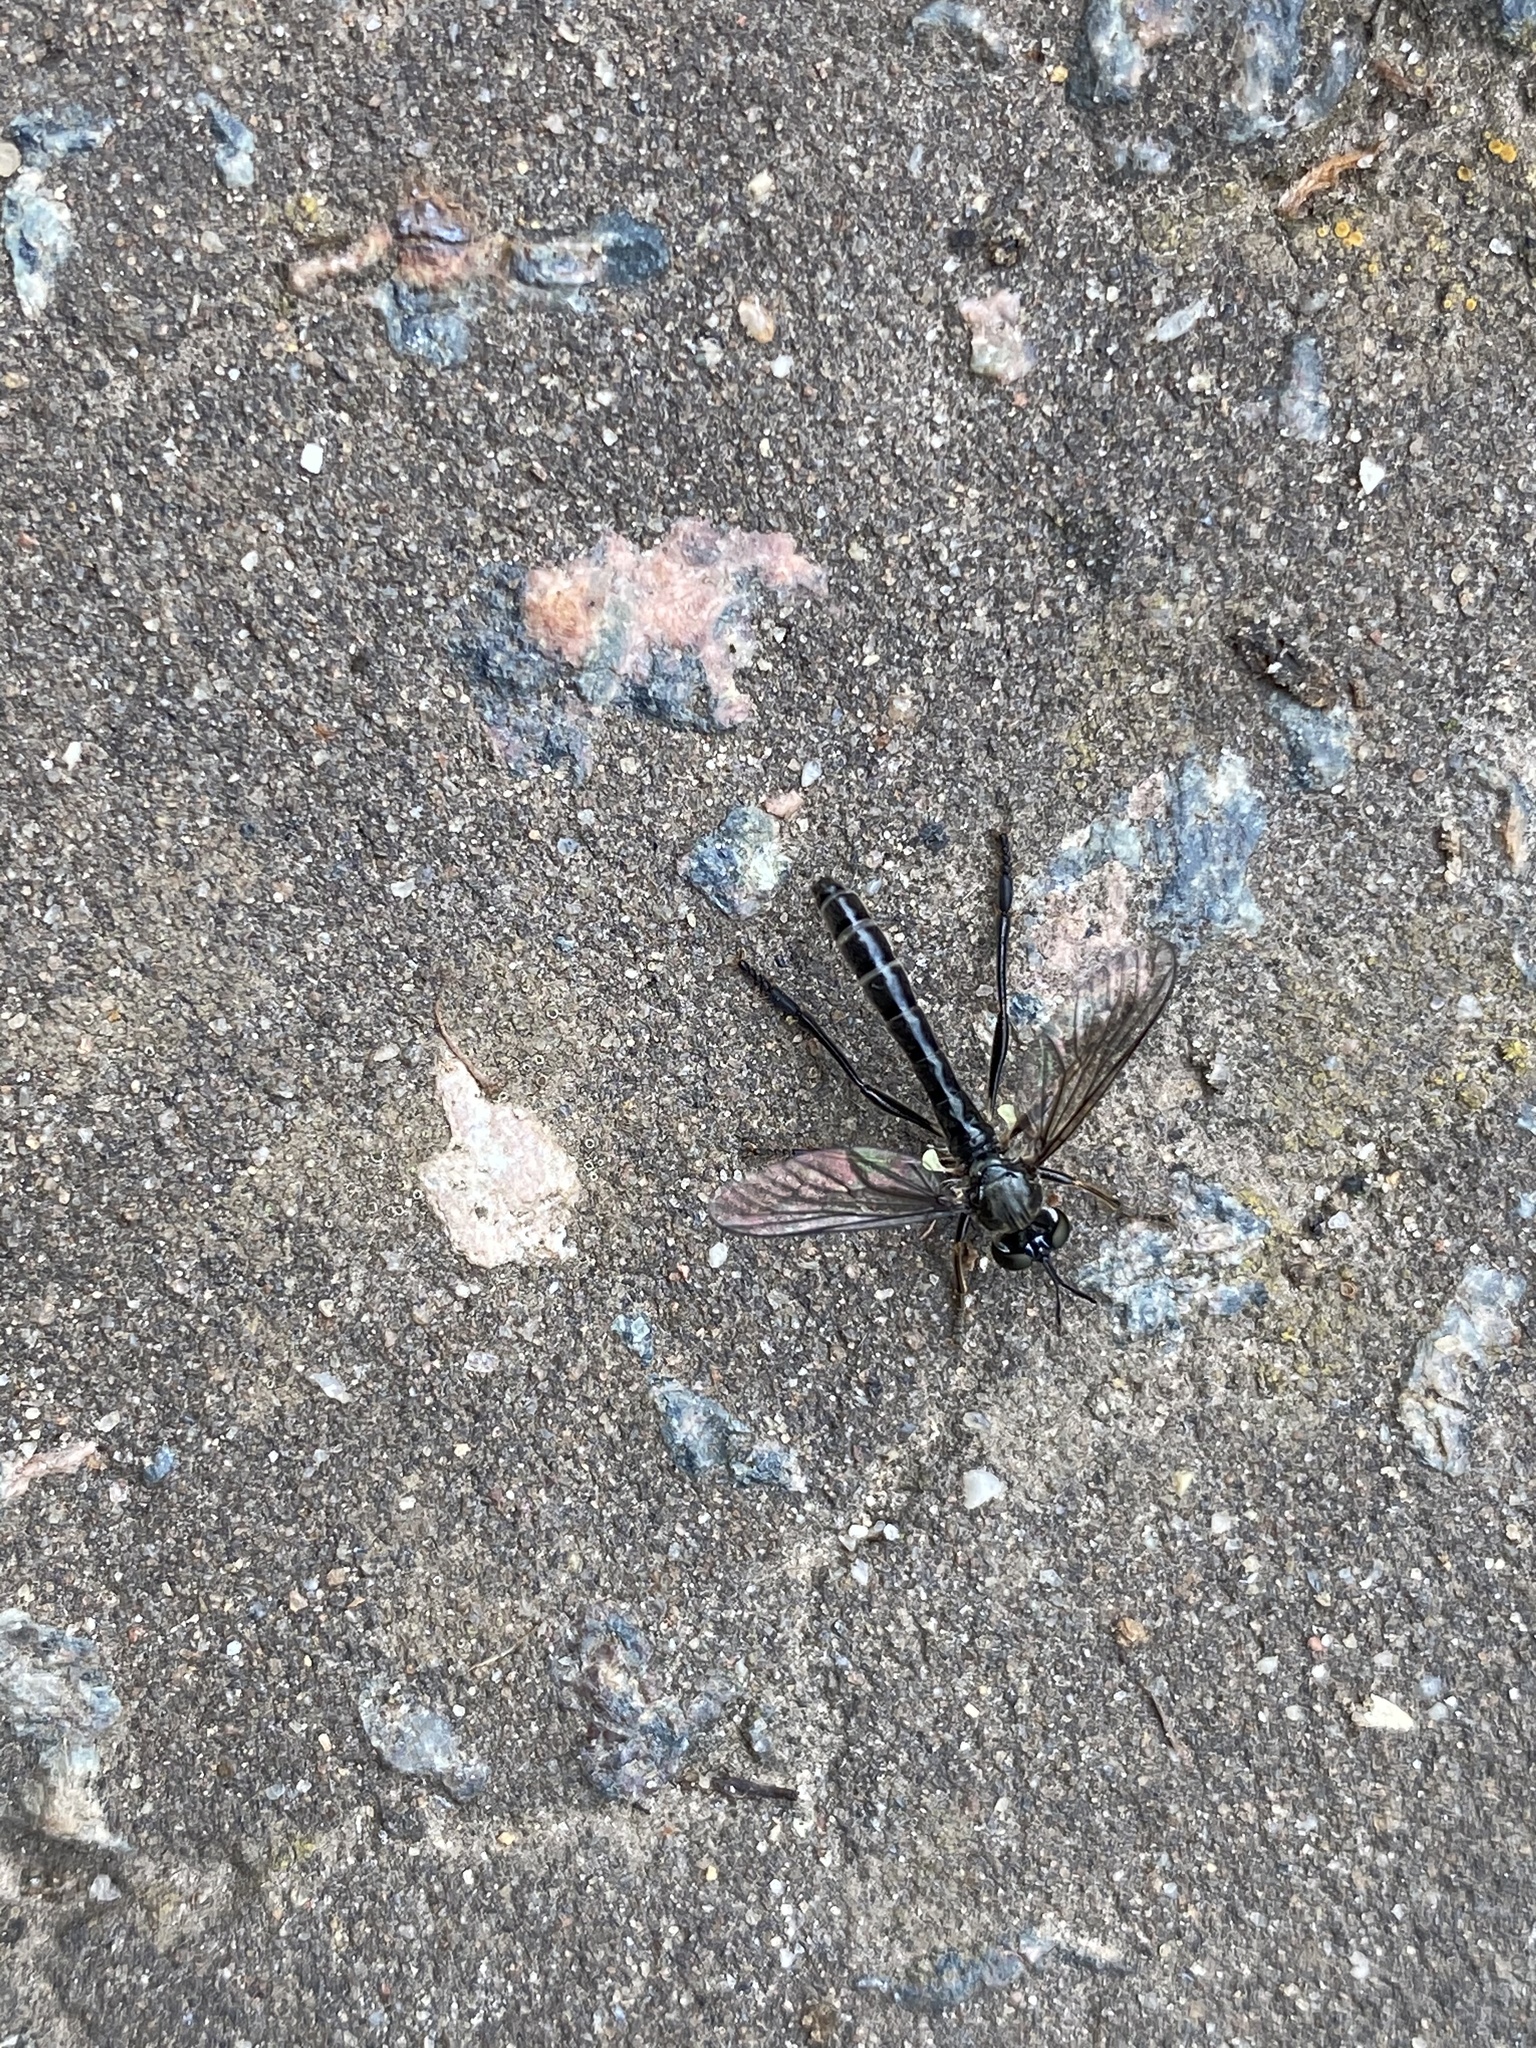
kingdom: Animalia
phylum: Arthropoda
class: Insecta
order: Diptera
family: Asilidae
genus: Dioctria
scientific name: Dioctria hyalipennis
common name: Stripe-legged robberfly
